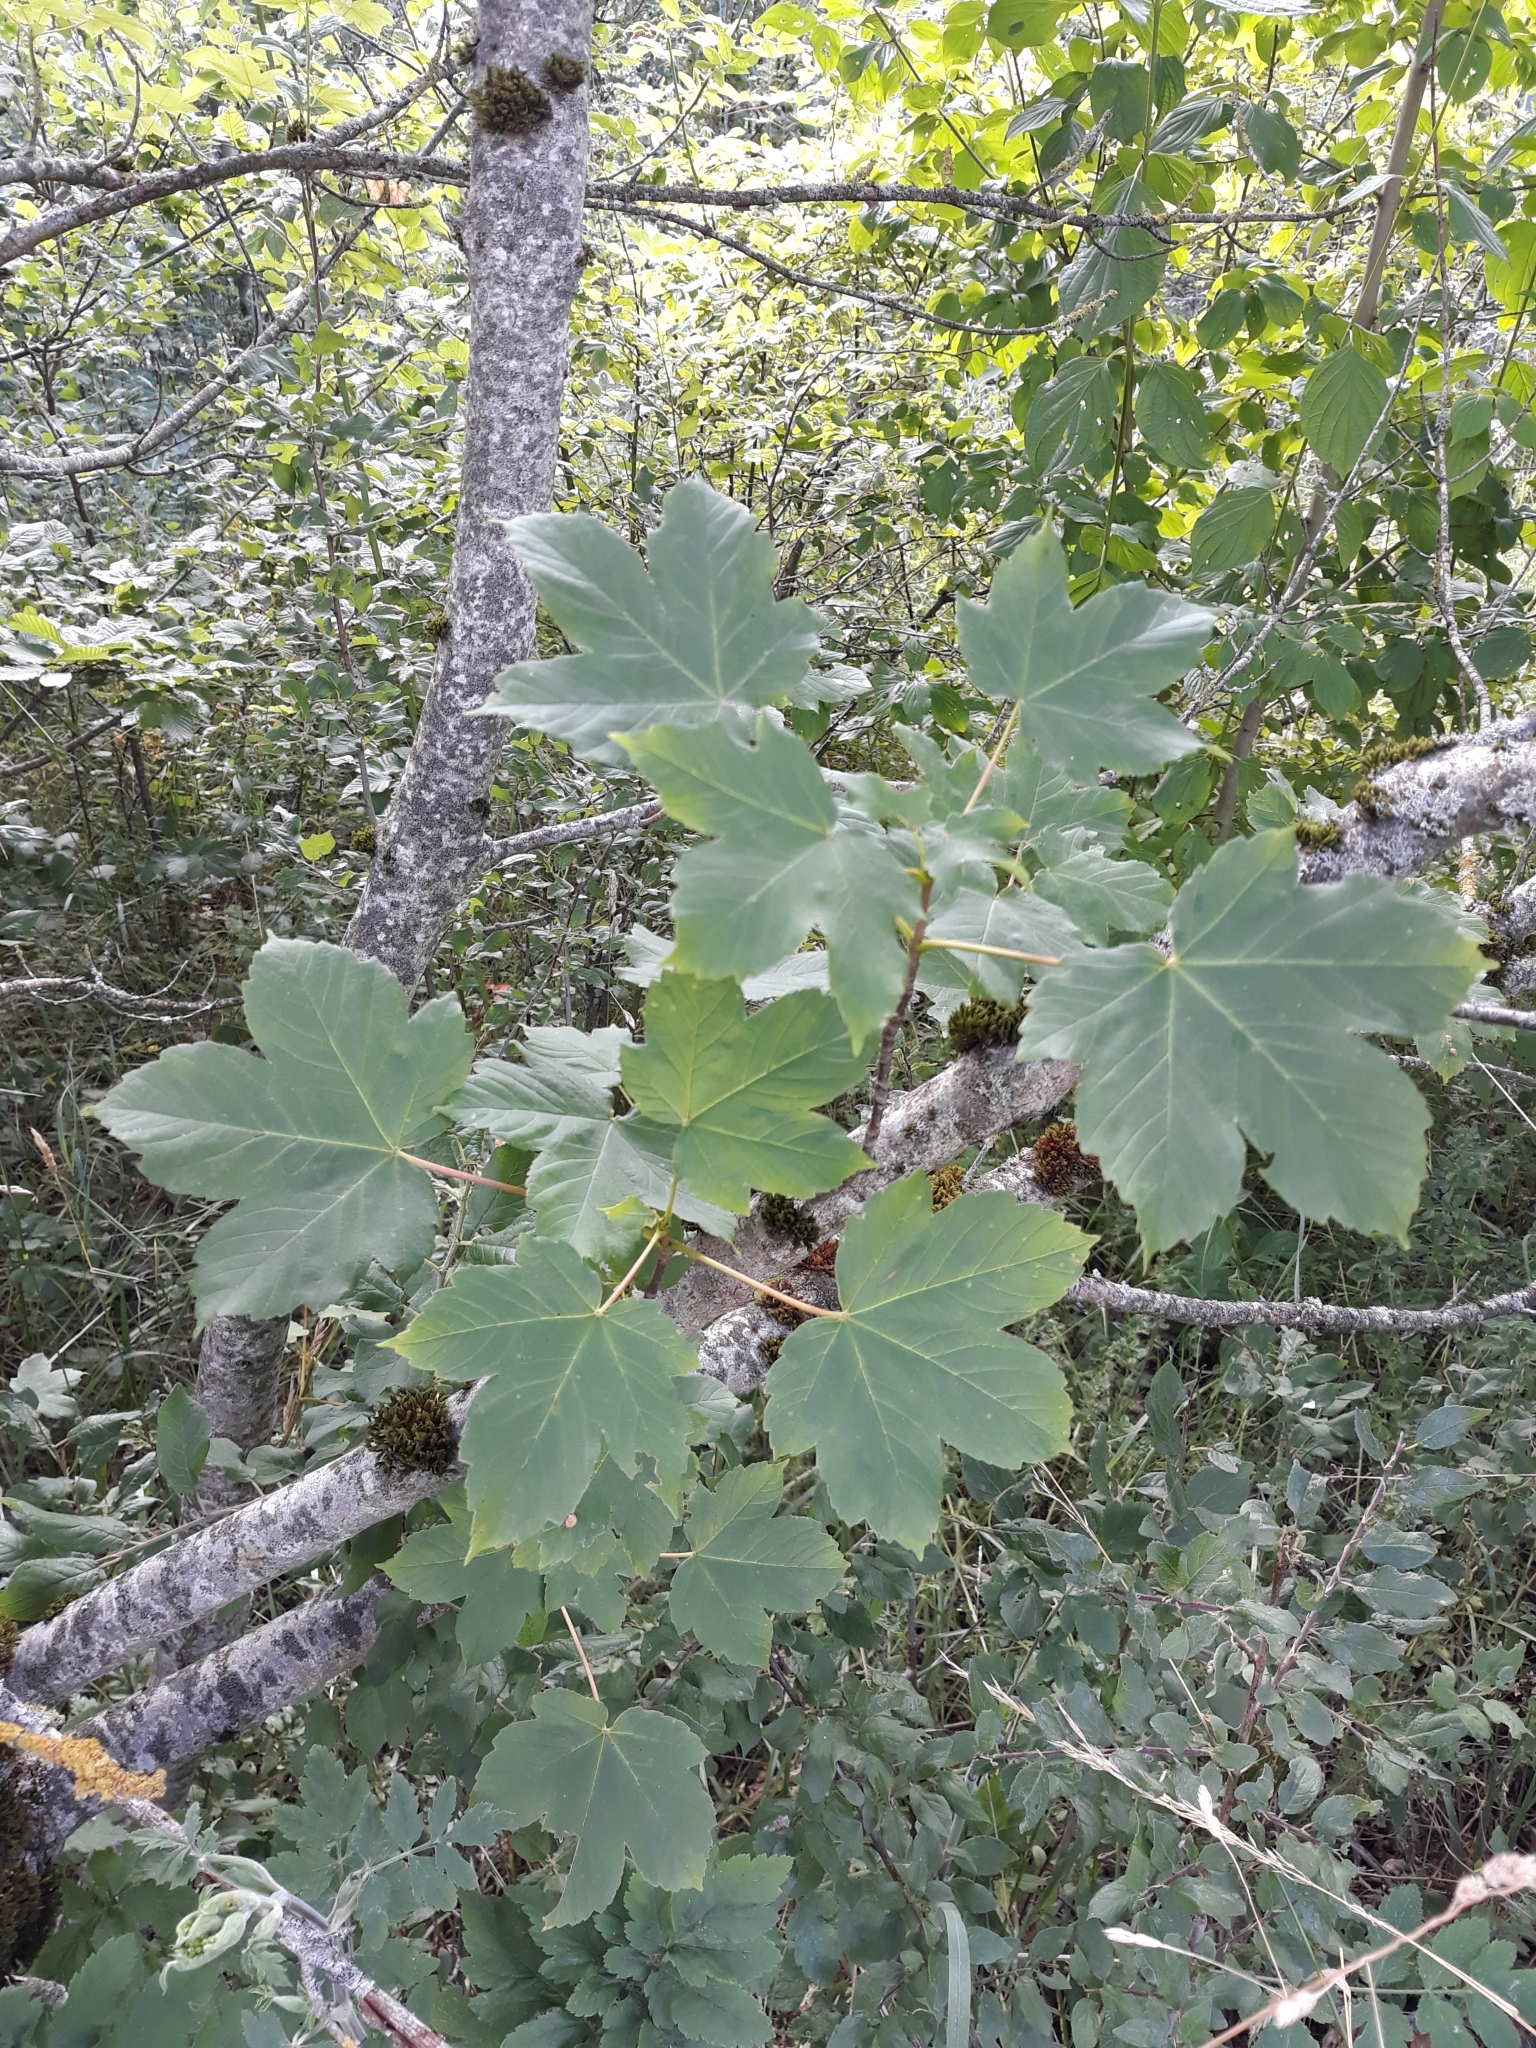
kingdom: Plantae
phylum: Tracheophyta
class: Magnoliopsida
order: Sapindales
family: Sapindaceae
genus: Acer
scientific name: Acer pseudoplatanus
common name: Sycamore
